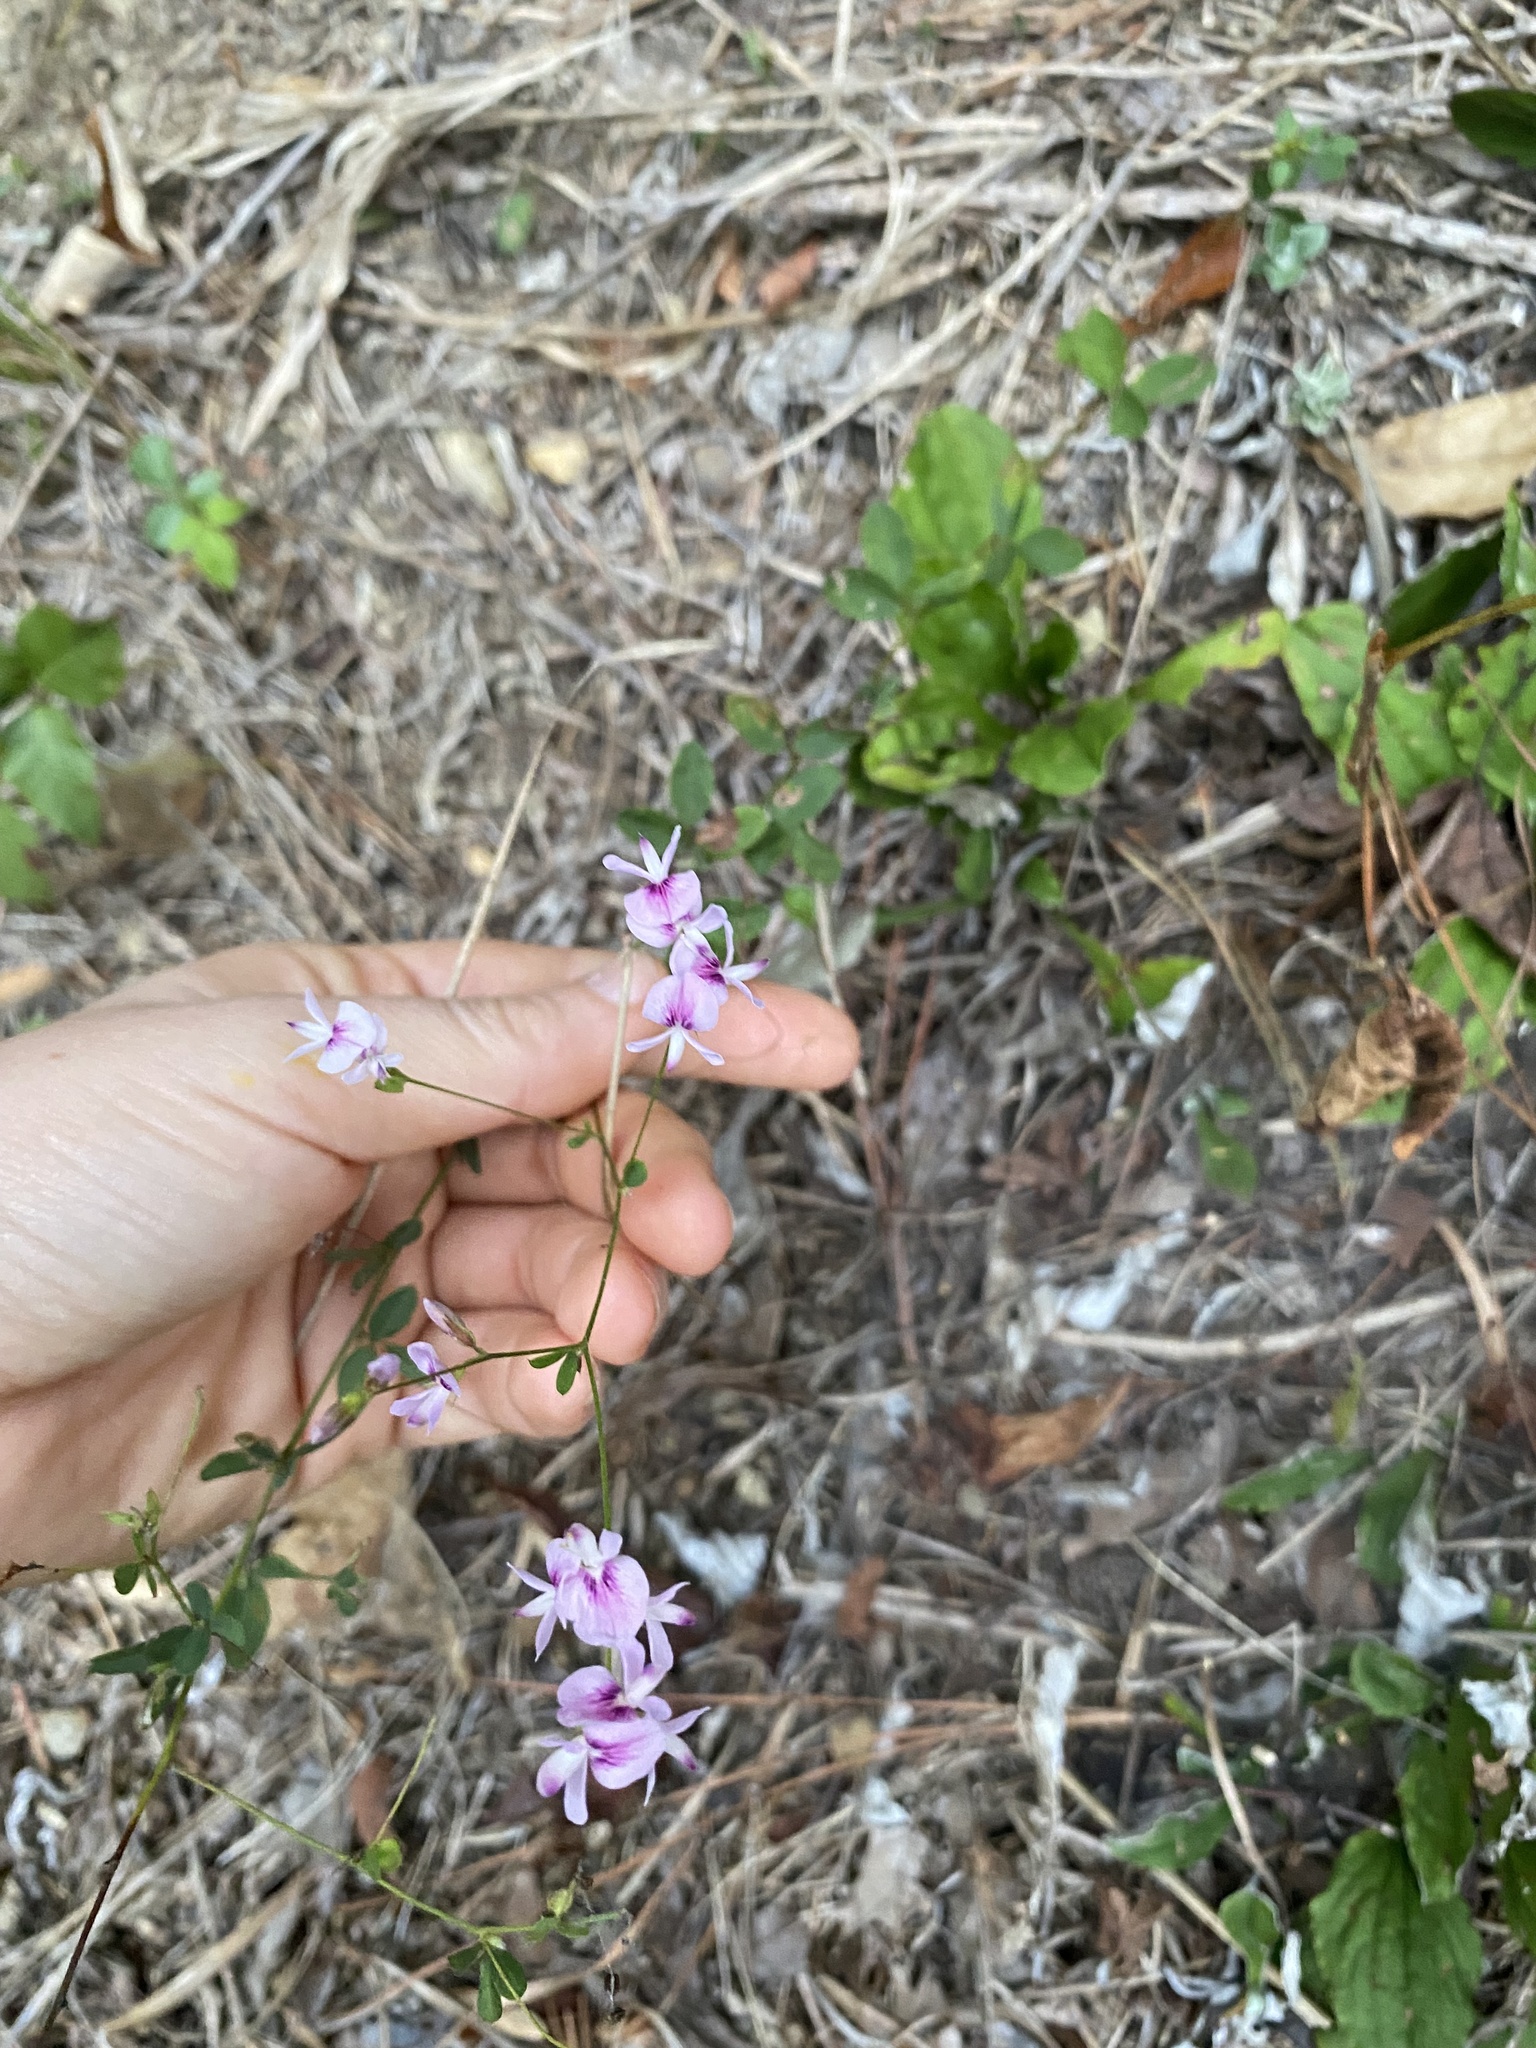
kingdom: Plantae
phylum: Tracheophyta
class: Magnoliopsida
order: Fabales
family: Fabaceae
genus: Lespedeza
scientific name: Lespedeza repens
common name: Creeping bush-clover
